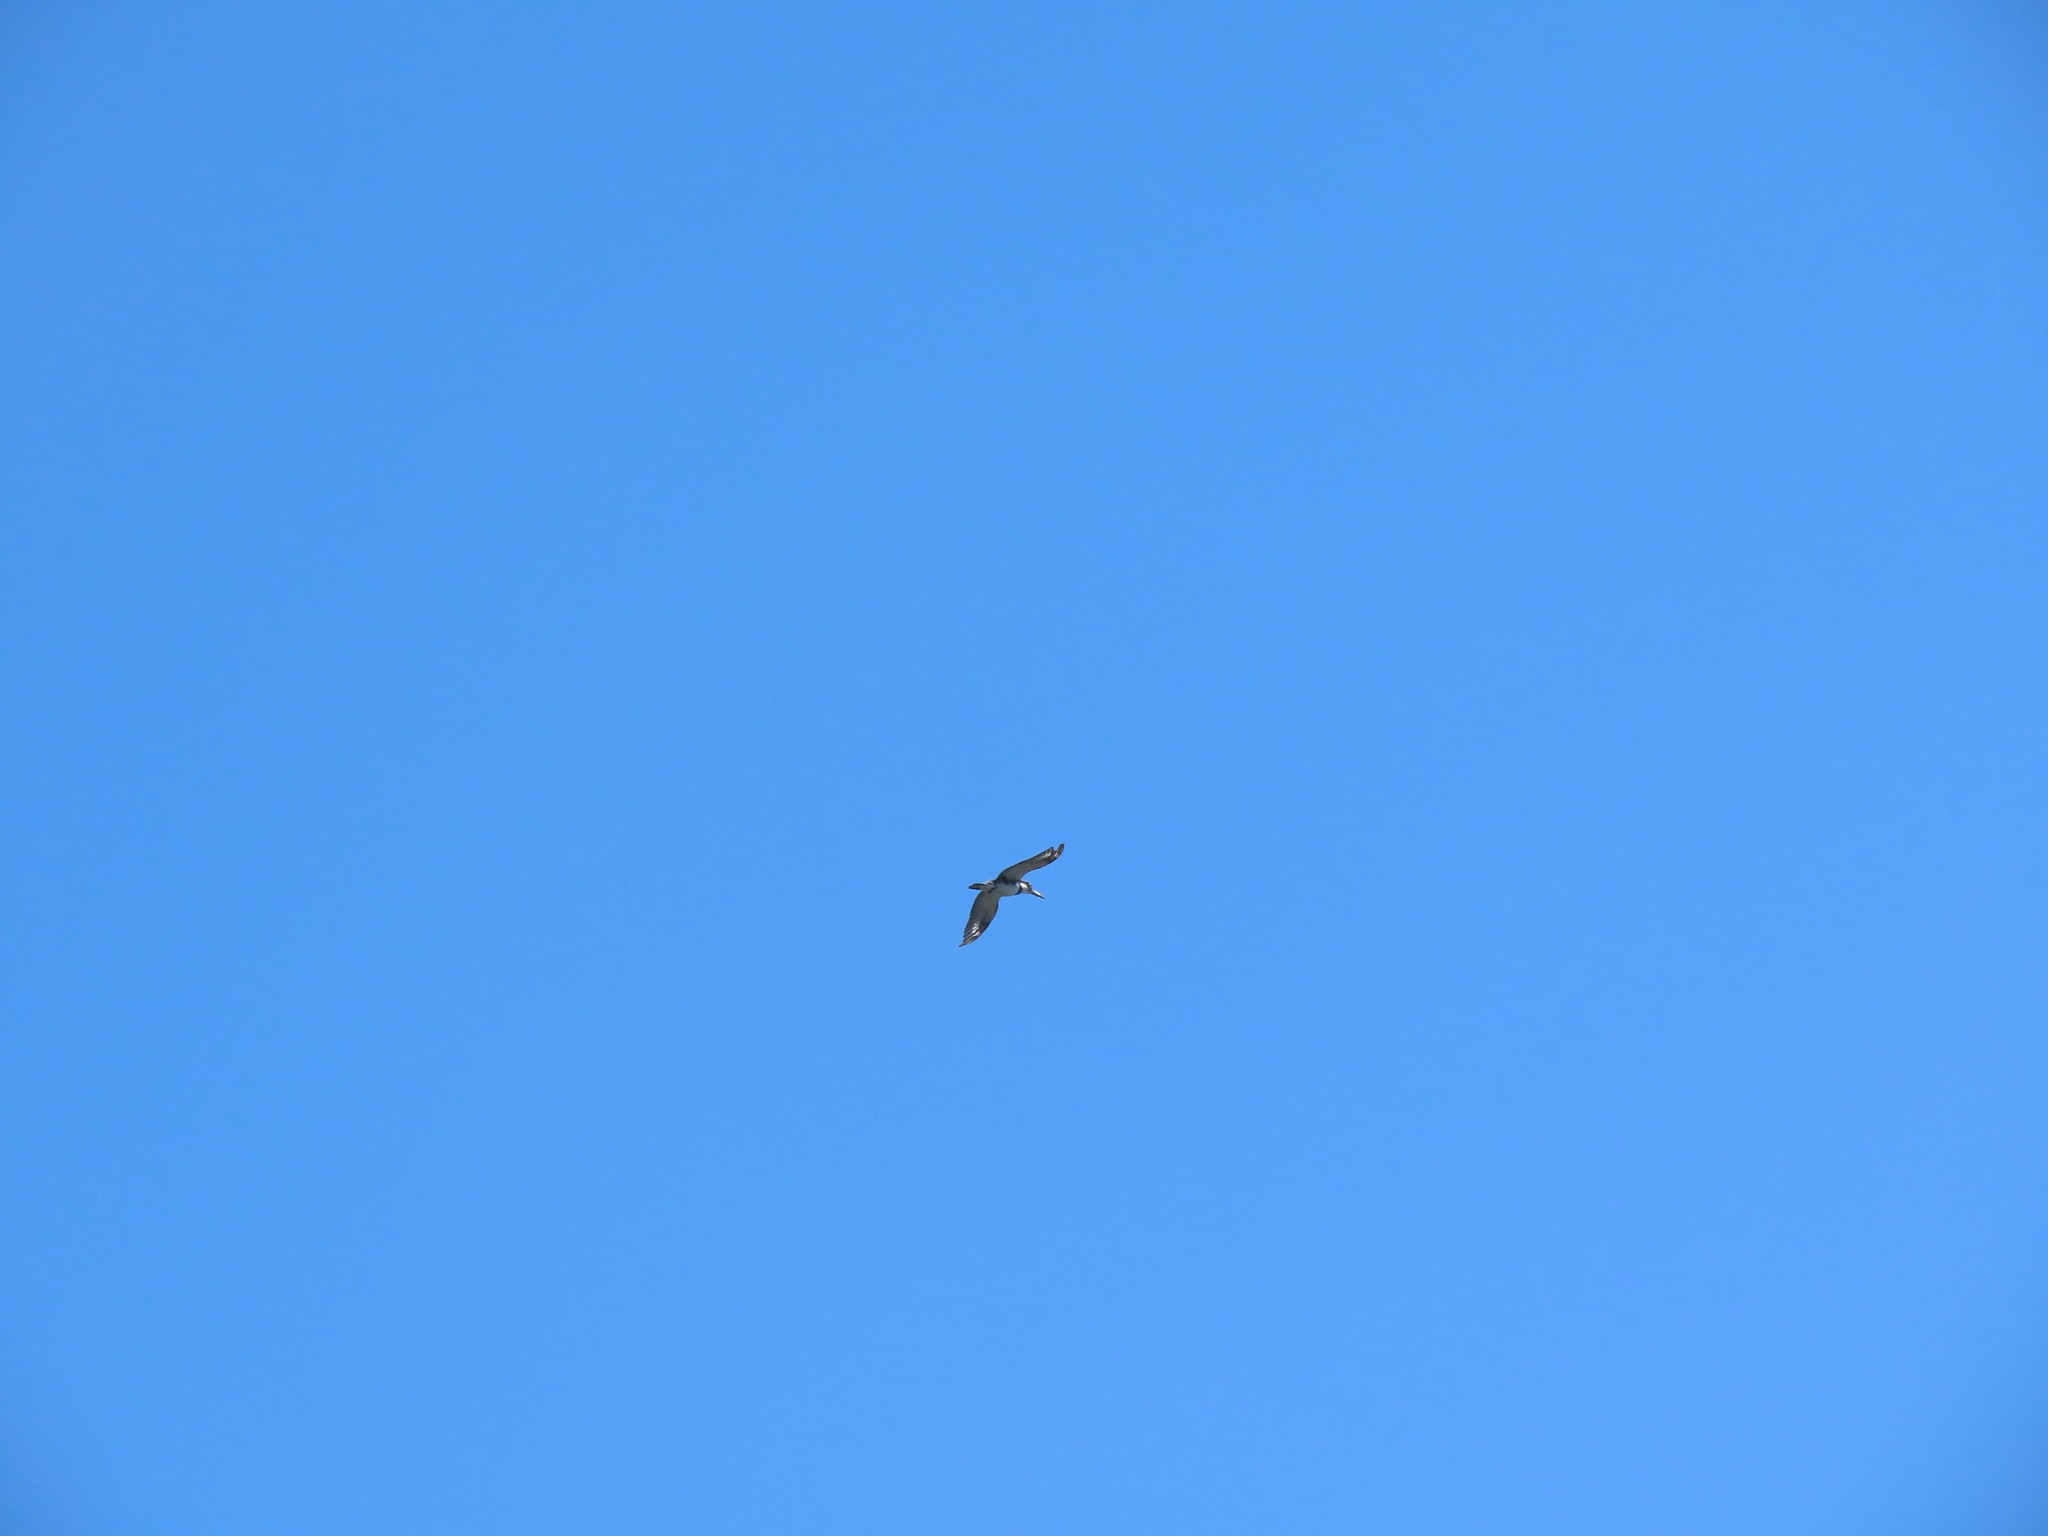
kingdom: Animalia
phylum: Chordata
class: Aves
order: Coraciiformes
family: Alcedinidae
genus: Megaceryle
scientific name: Megaceryle alcyon
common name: Belted kingfisher
